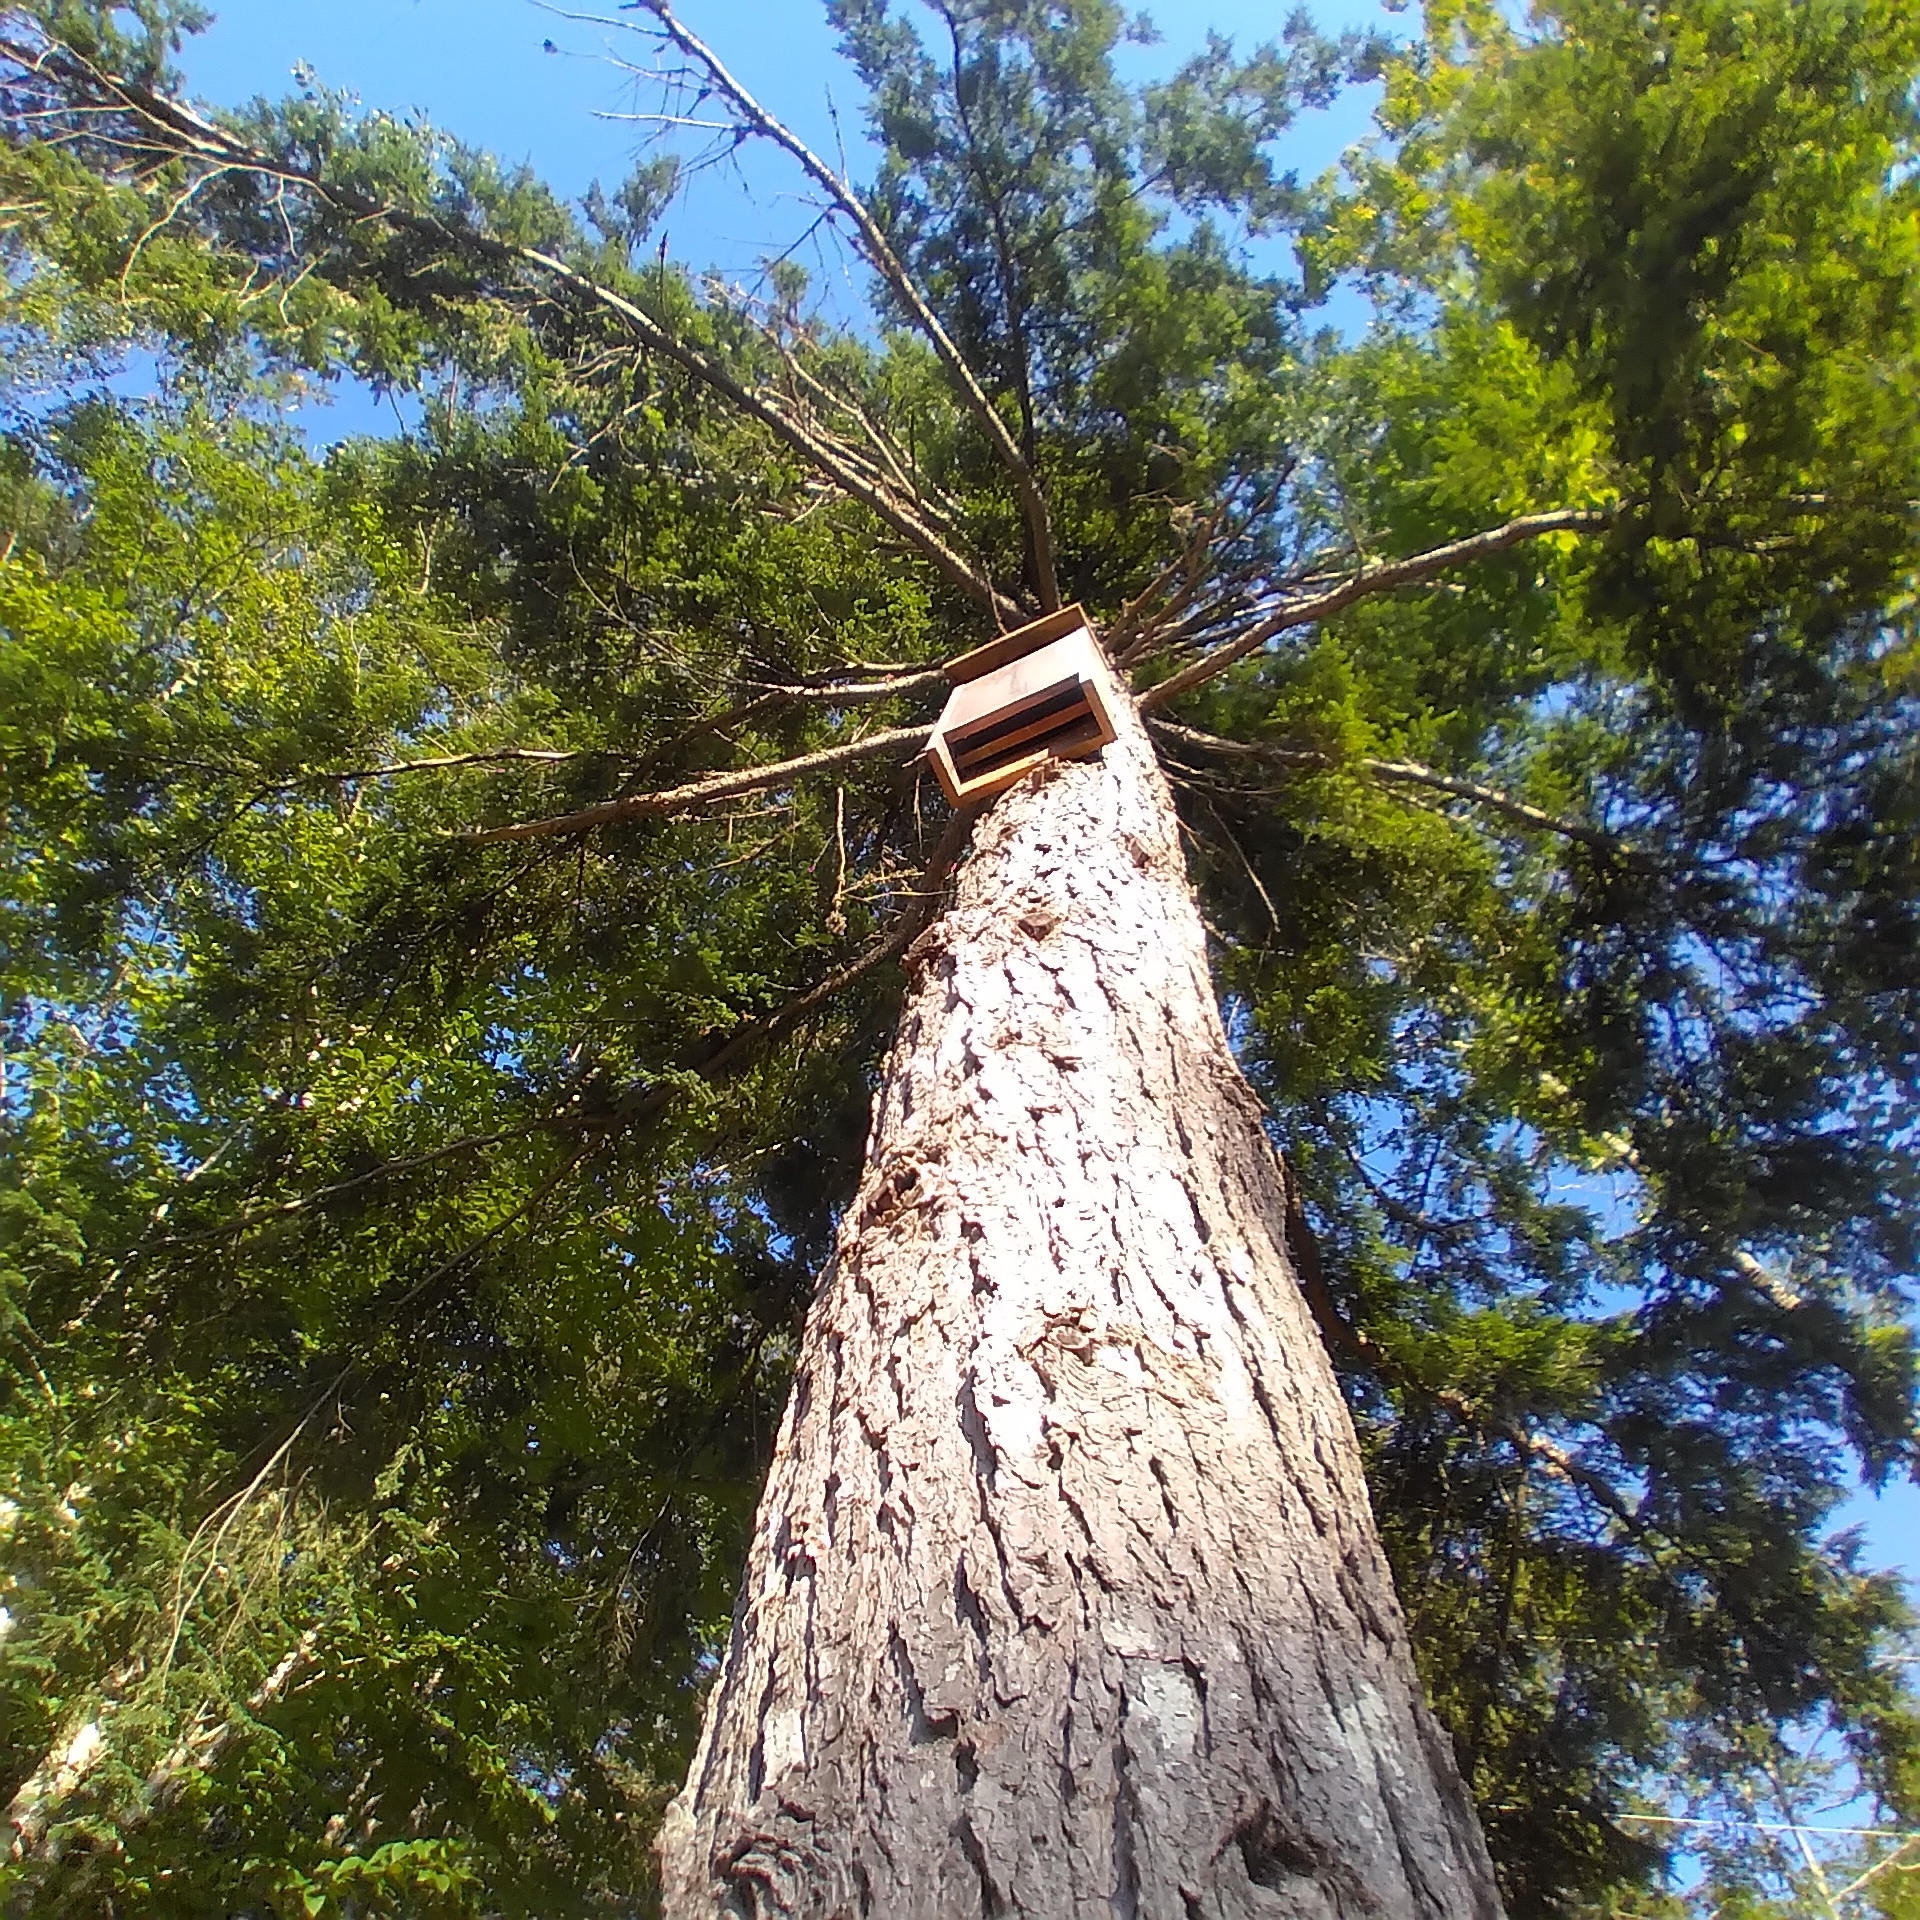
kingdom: Plantae
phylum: Tracheophyta
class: Pinopsida
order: Pinales
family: Pinaceae
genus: Tsuga
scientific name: Tsuga canadensis
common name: Eastern hemlock
